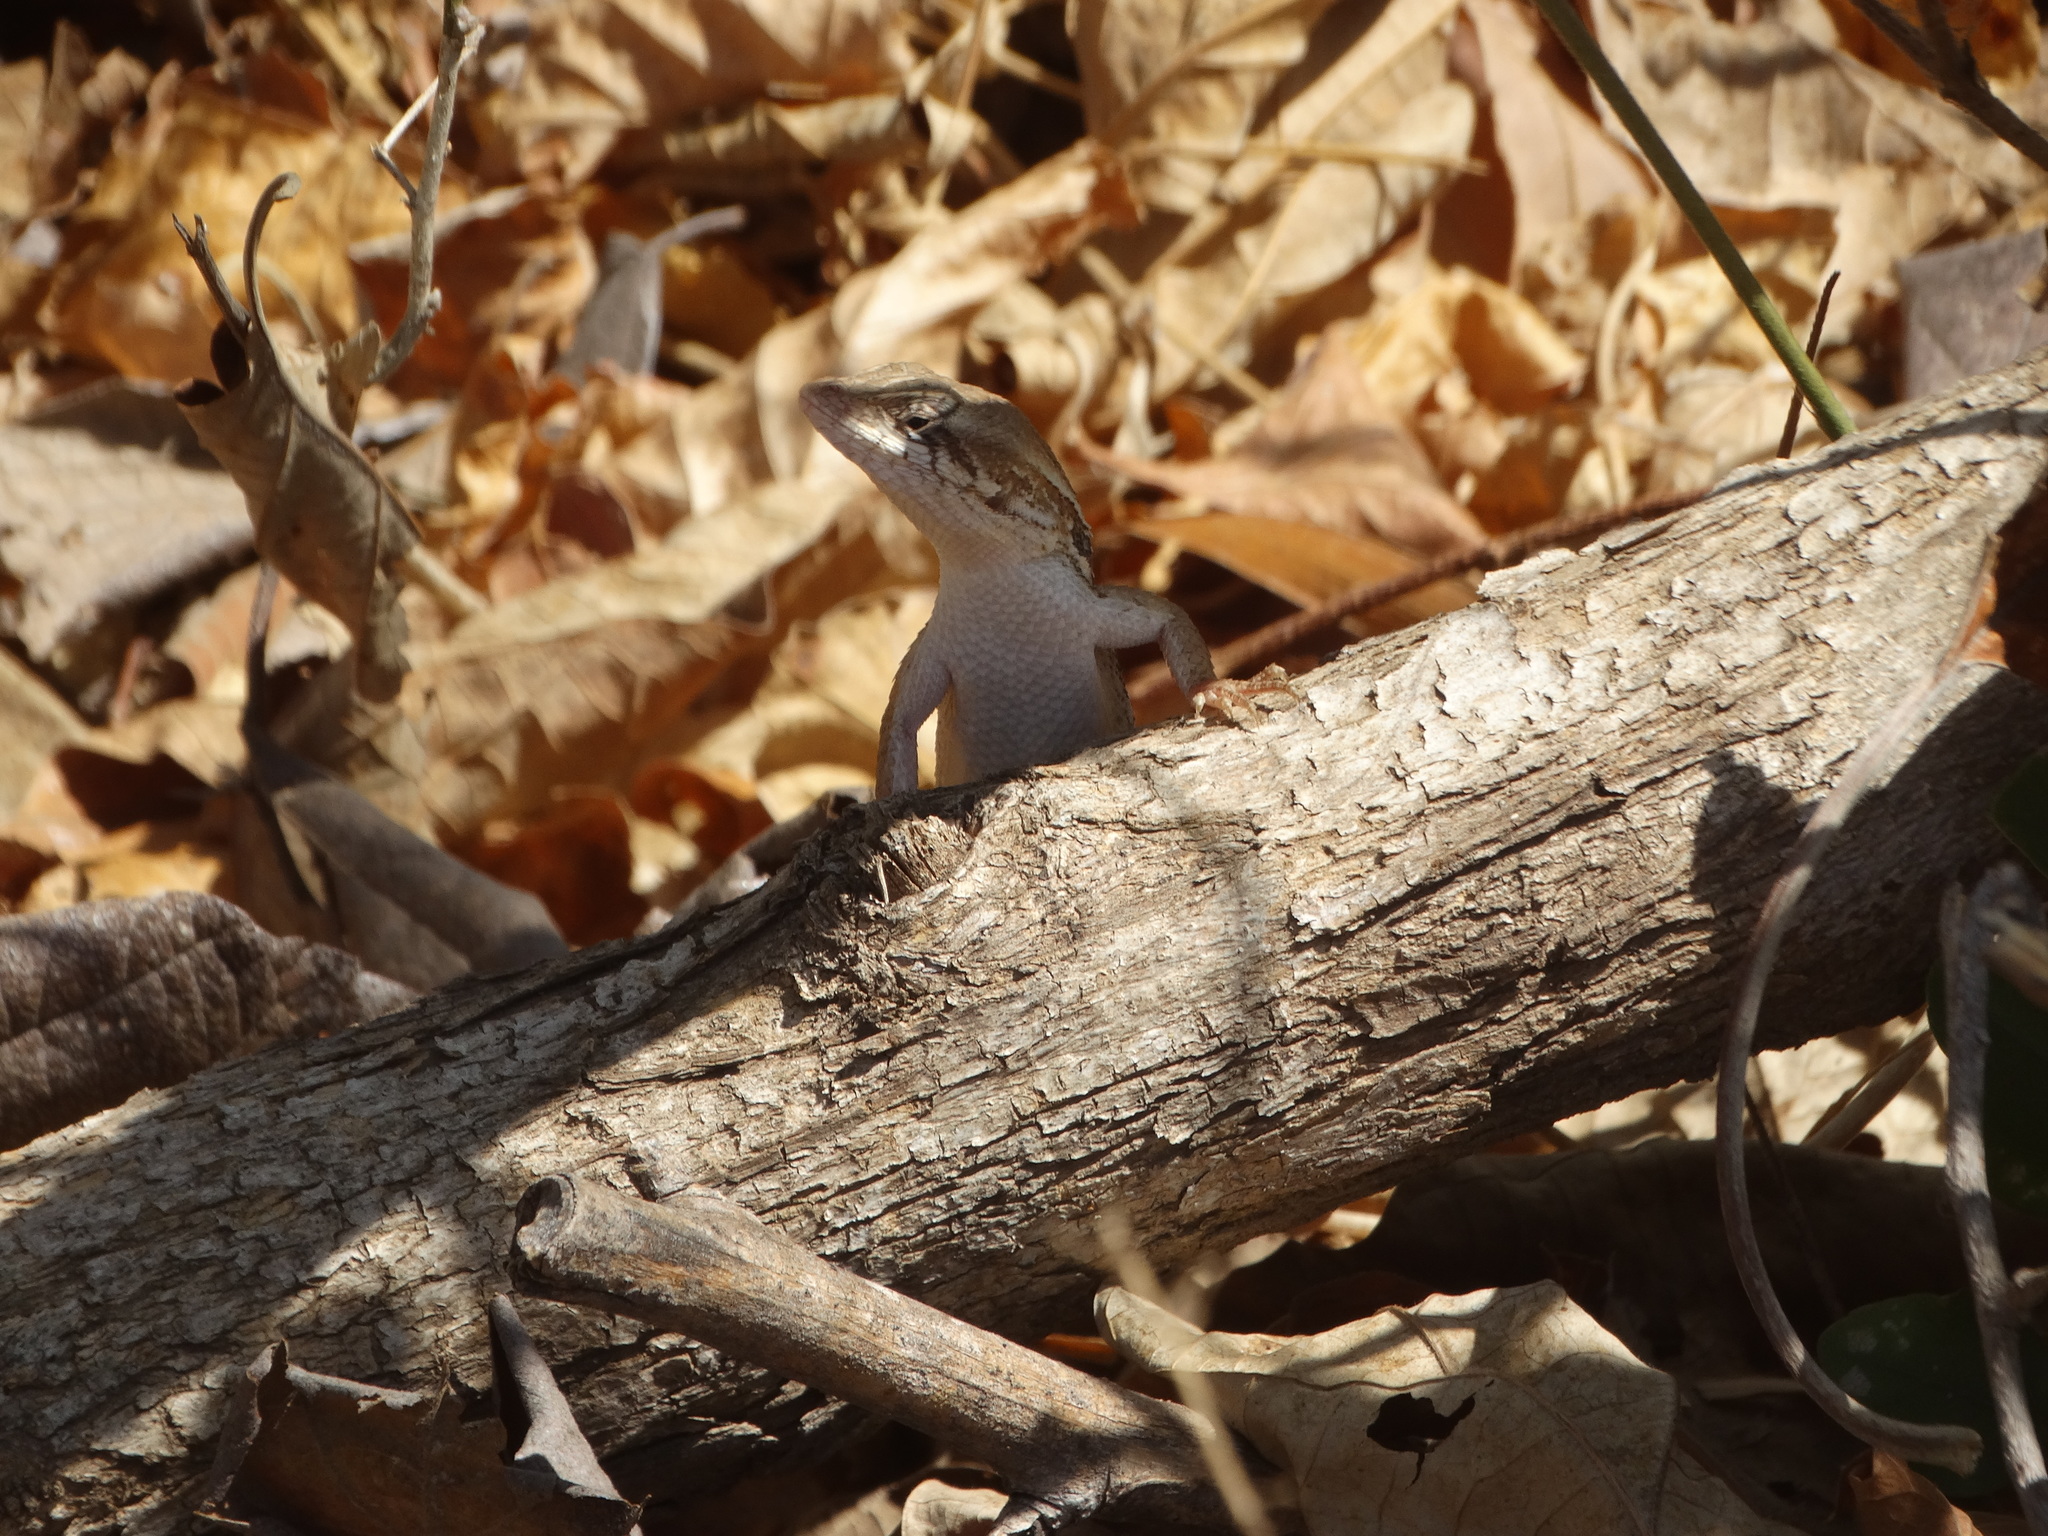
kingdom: Animalia
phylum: Chordata
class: Squamata
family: Phrynosomatidae
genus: Sceloporus
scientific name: Sceloporus siniferus
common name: Longtail spiny lizard
